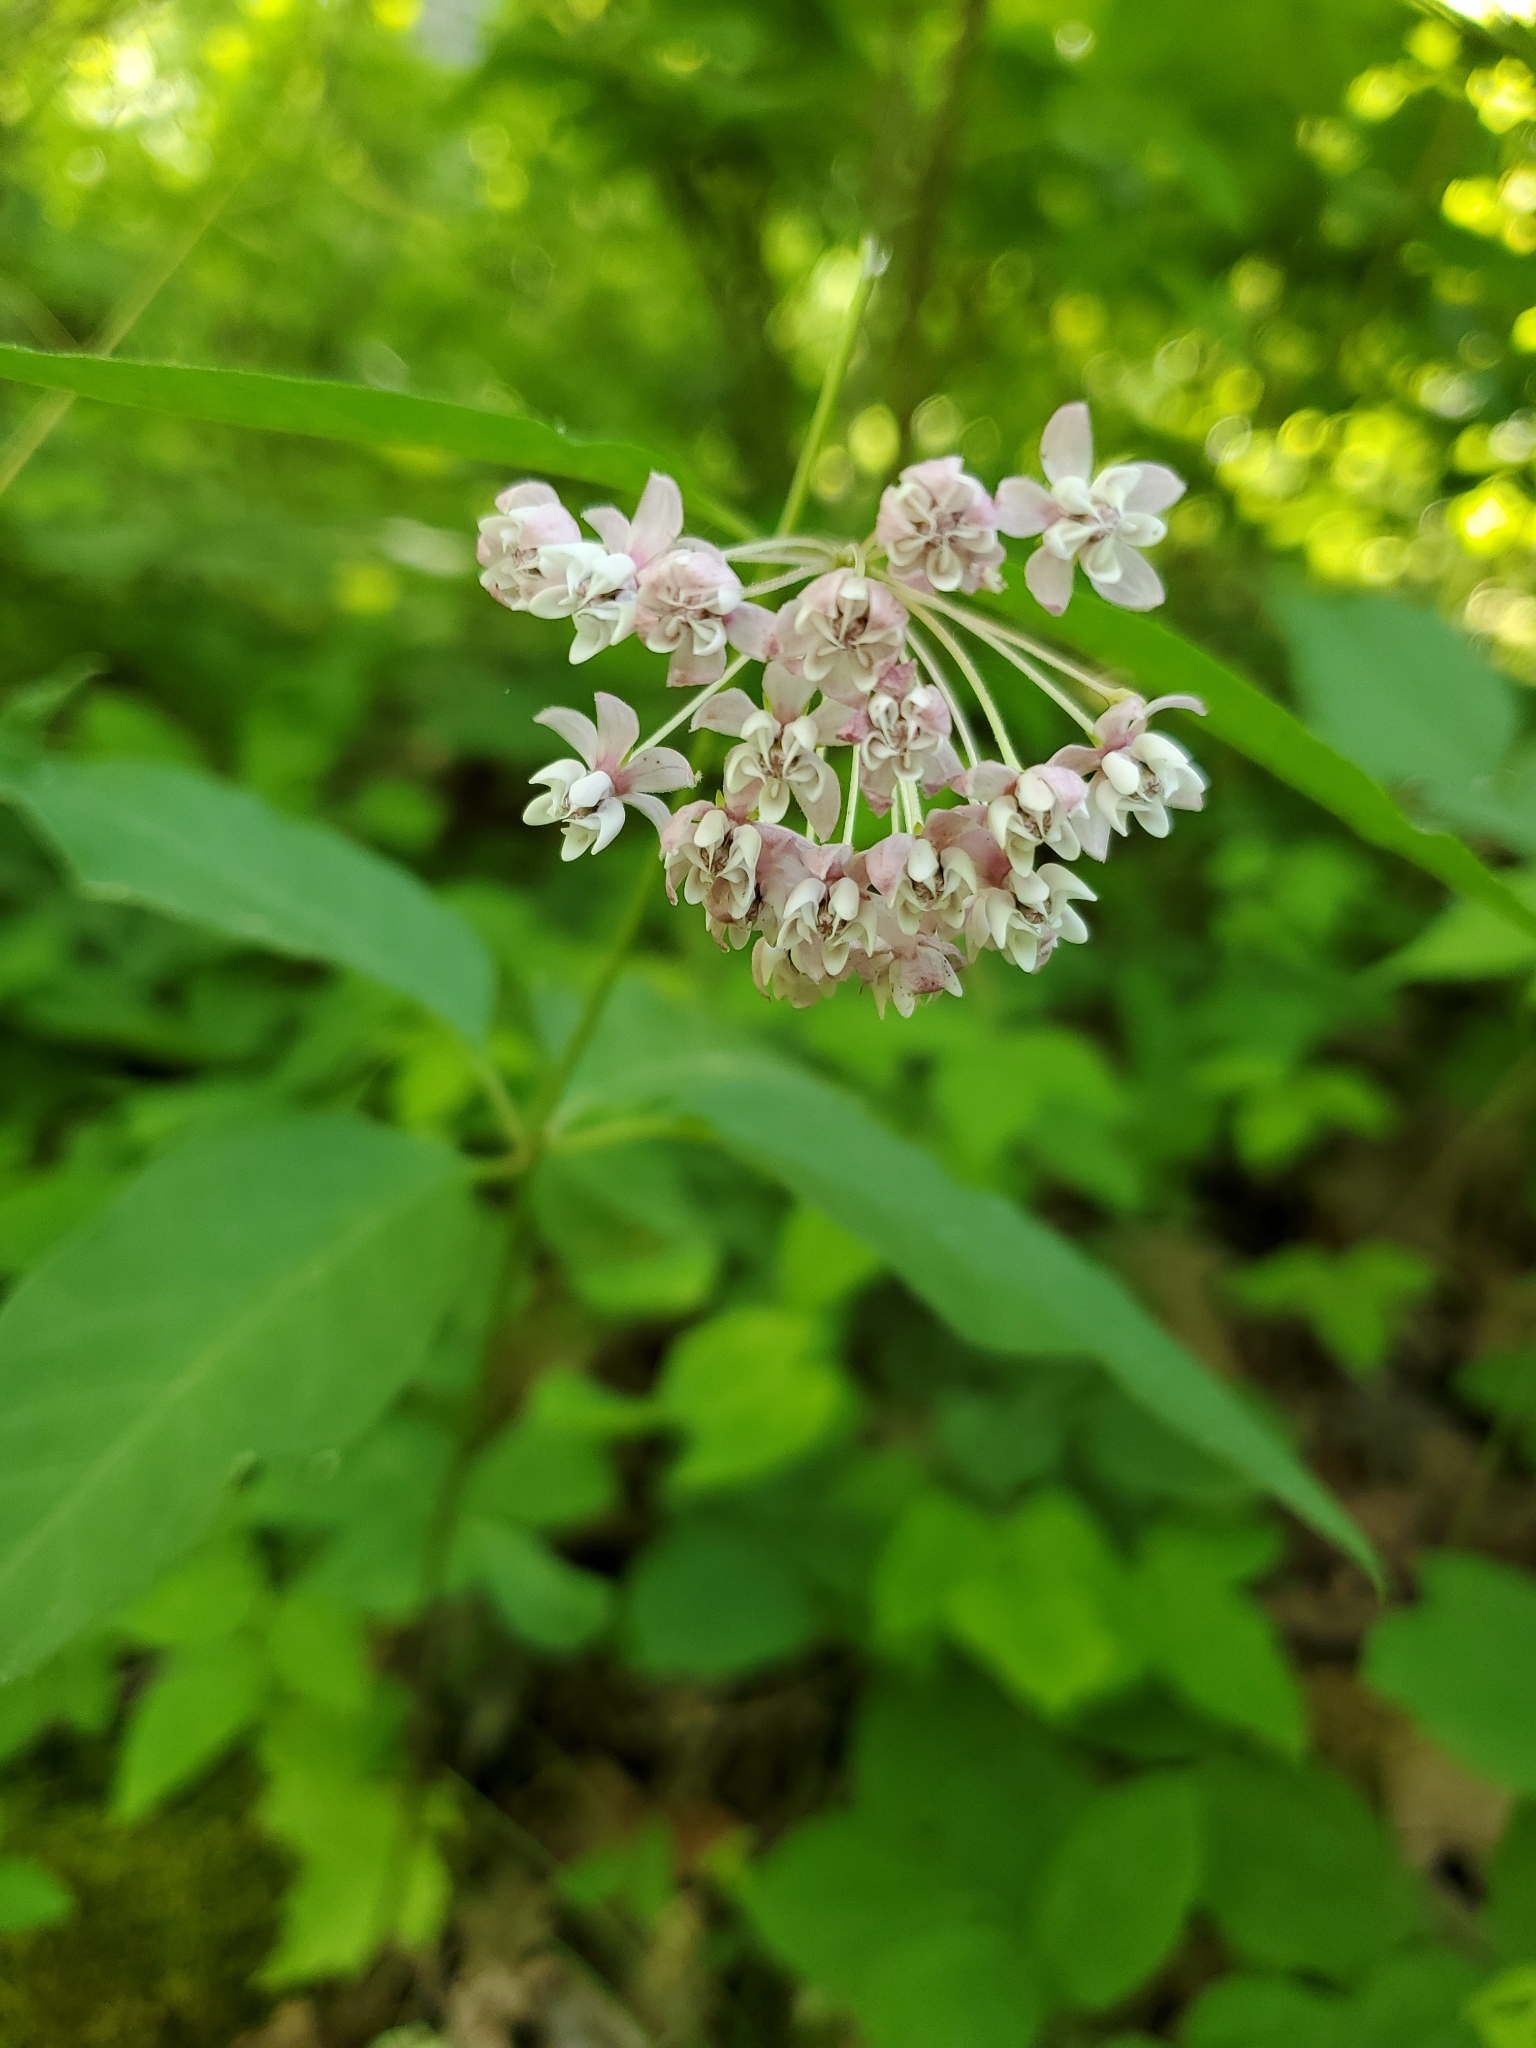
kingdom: Plantae
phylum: Tracheophyta
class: Magnoliopsida
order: Gentianales
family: Apocynaceae
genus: Asclepias
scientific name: Asclepias quadrifolia
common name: Whorled milkweed
